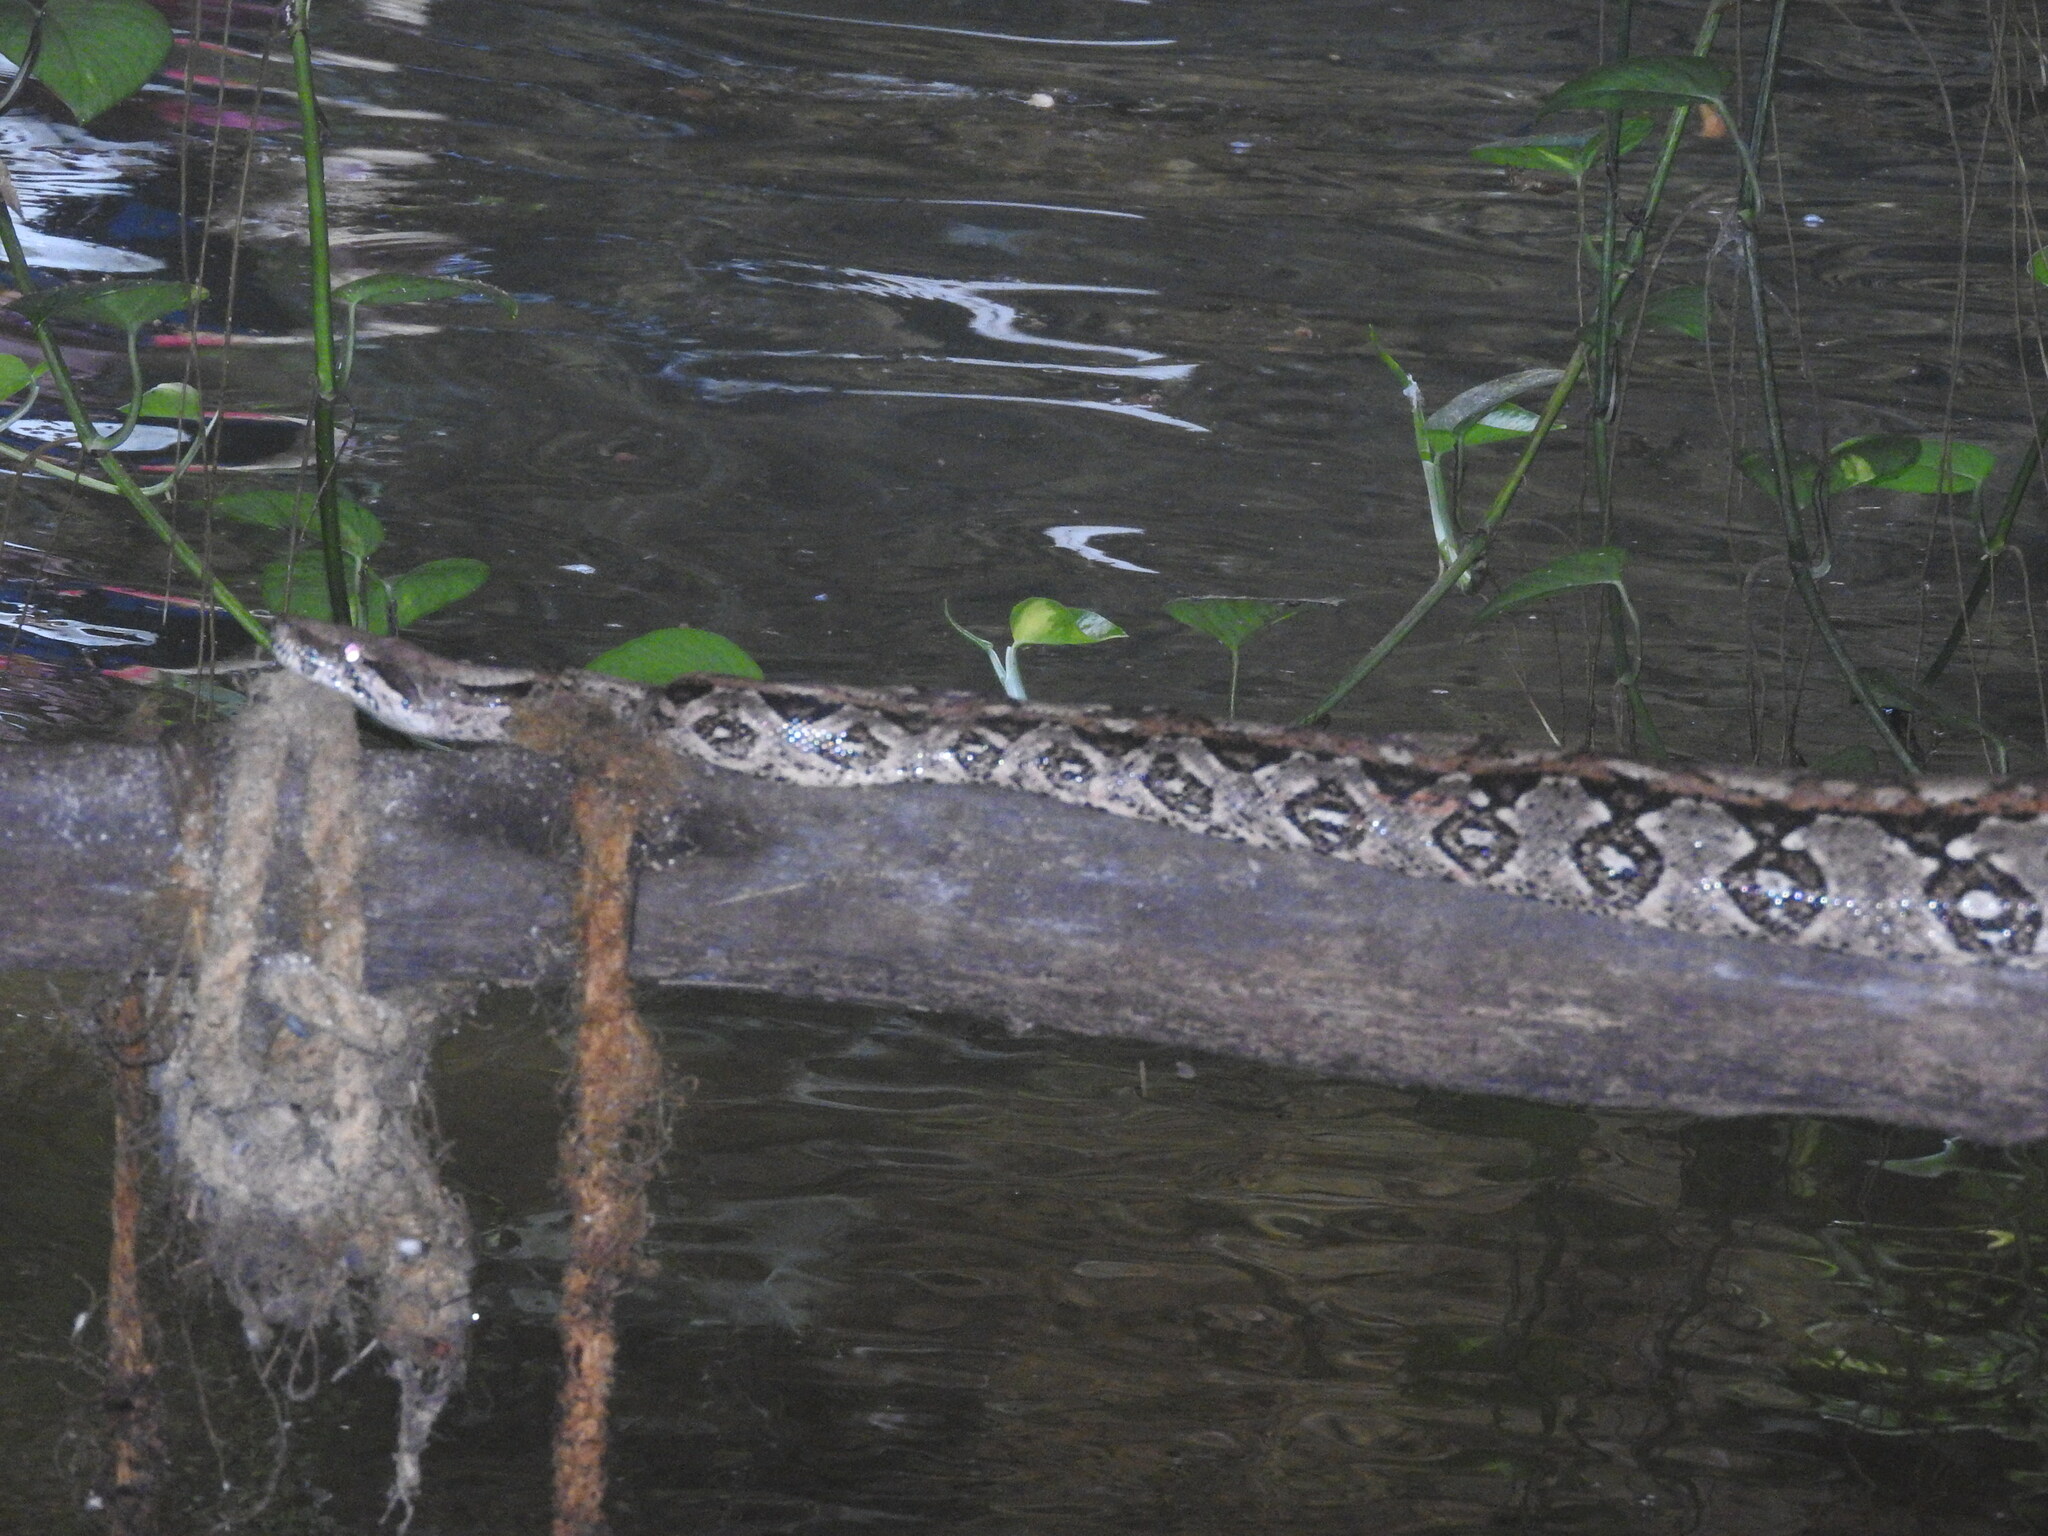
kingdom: Animalia
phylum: Chordata
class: Squamata
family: Boidae
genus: Boa
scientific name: Boa imperator
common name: Central american boa
